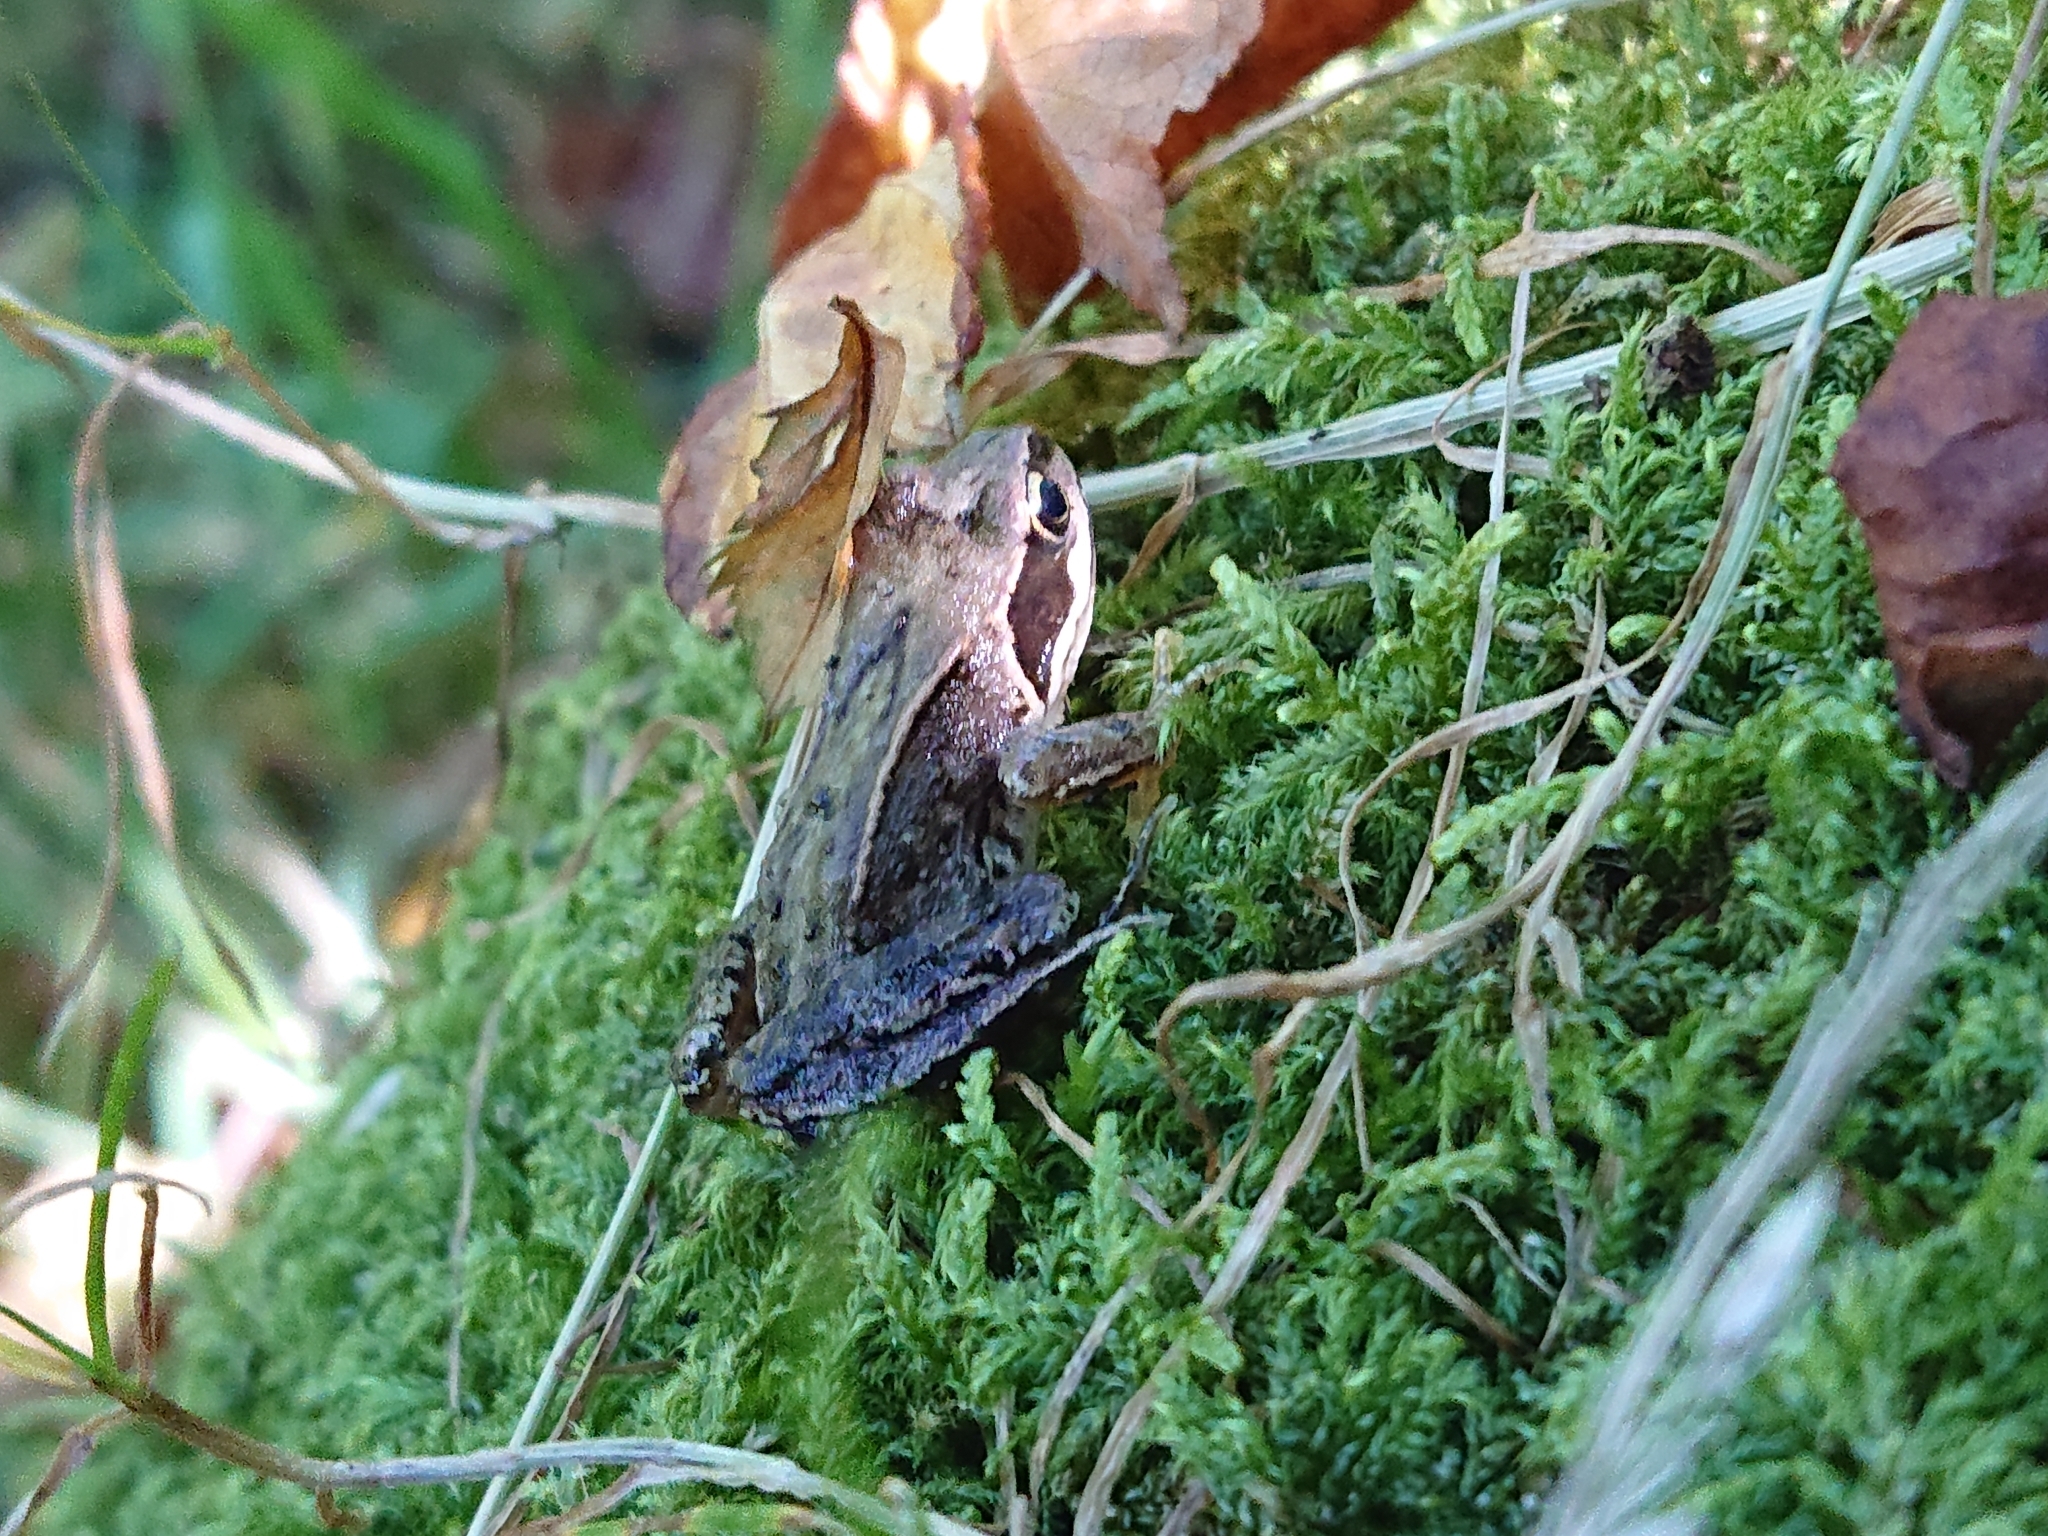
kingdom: Animalia
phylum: Chordata
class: Amphibia
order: Anura
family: Ranidae
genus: Rana
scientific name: Rana temporaria
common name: Common frog
